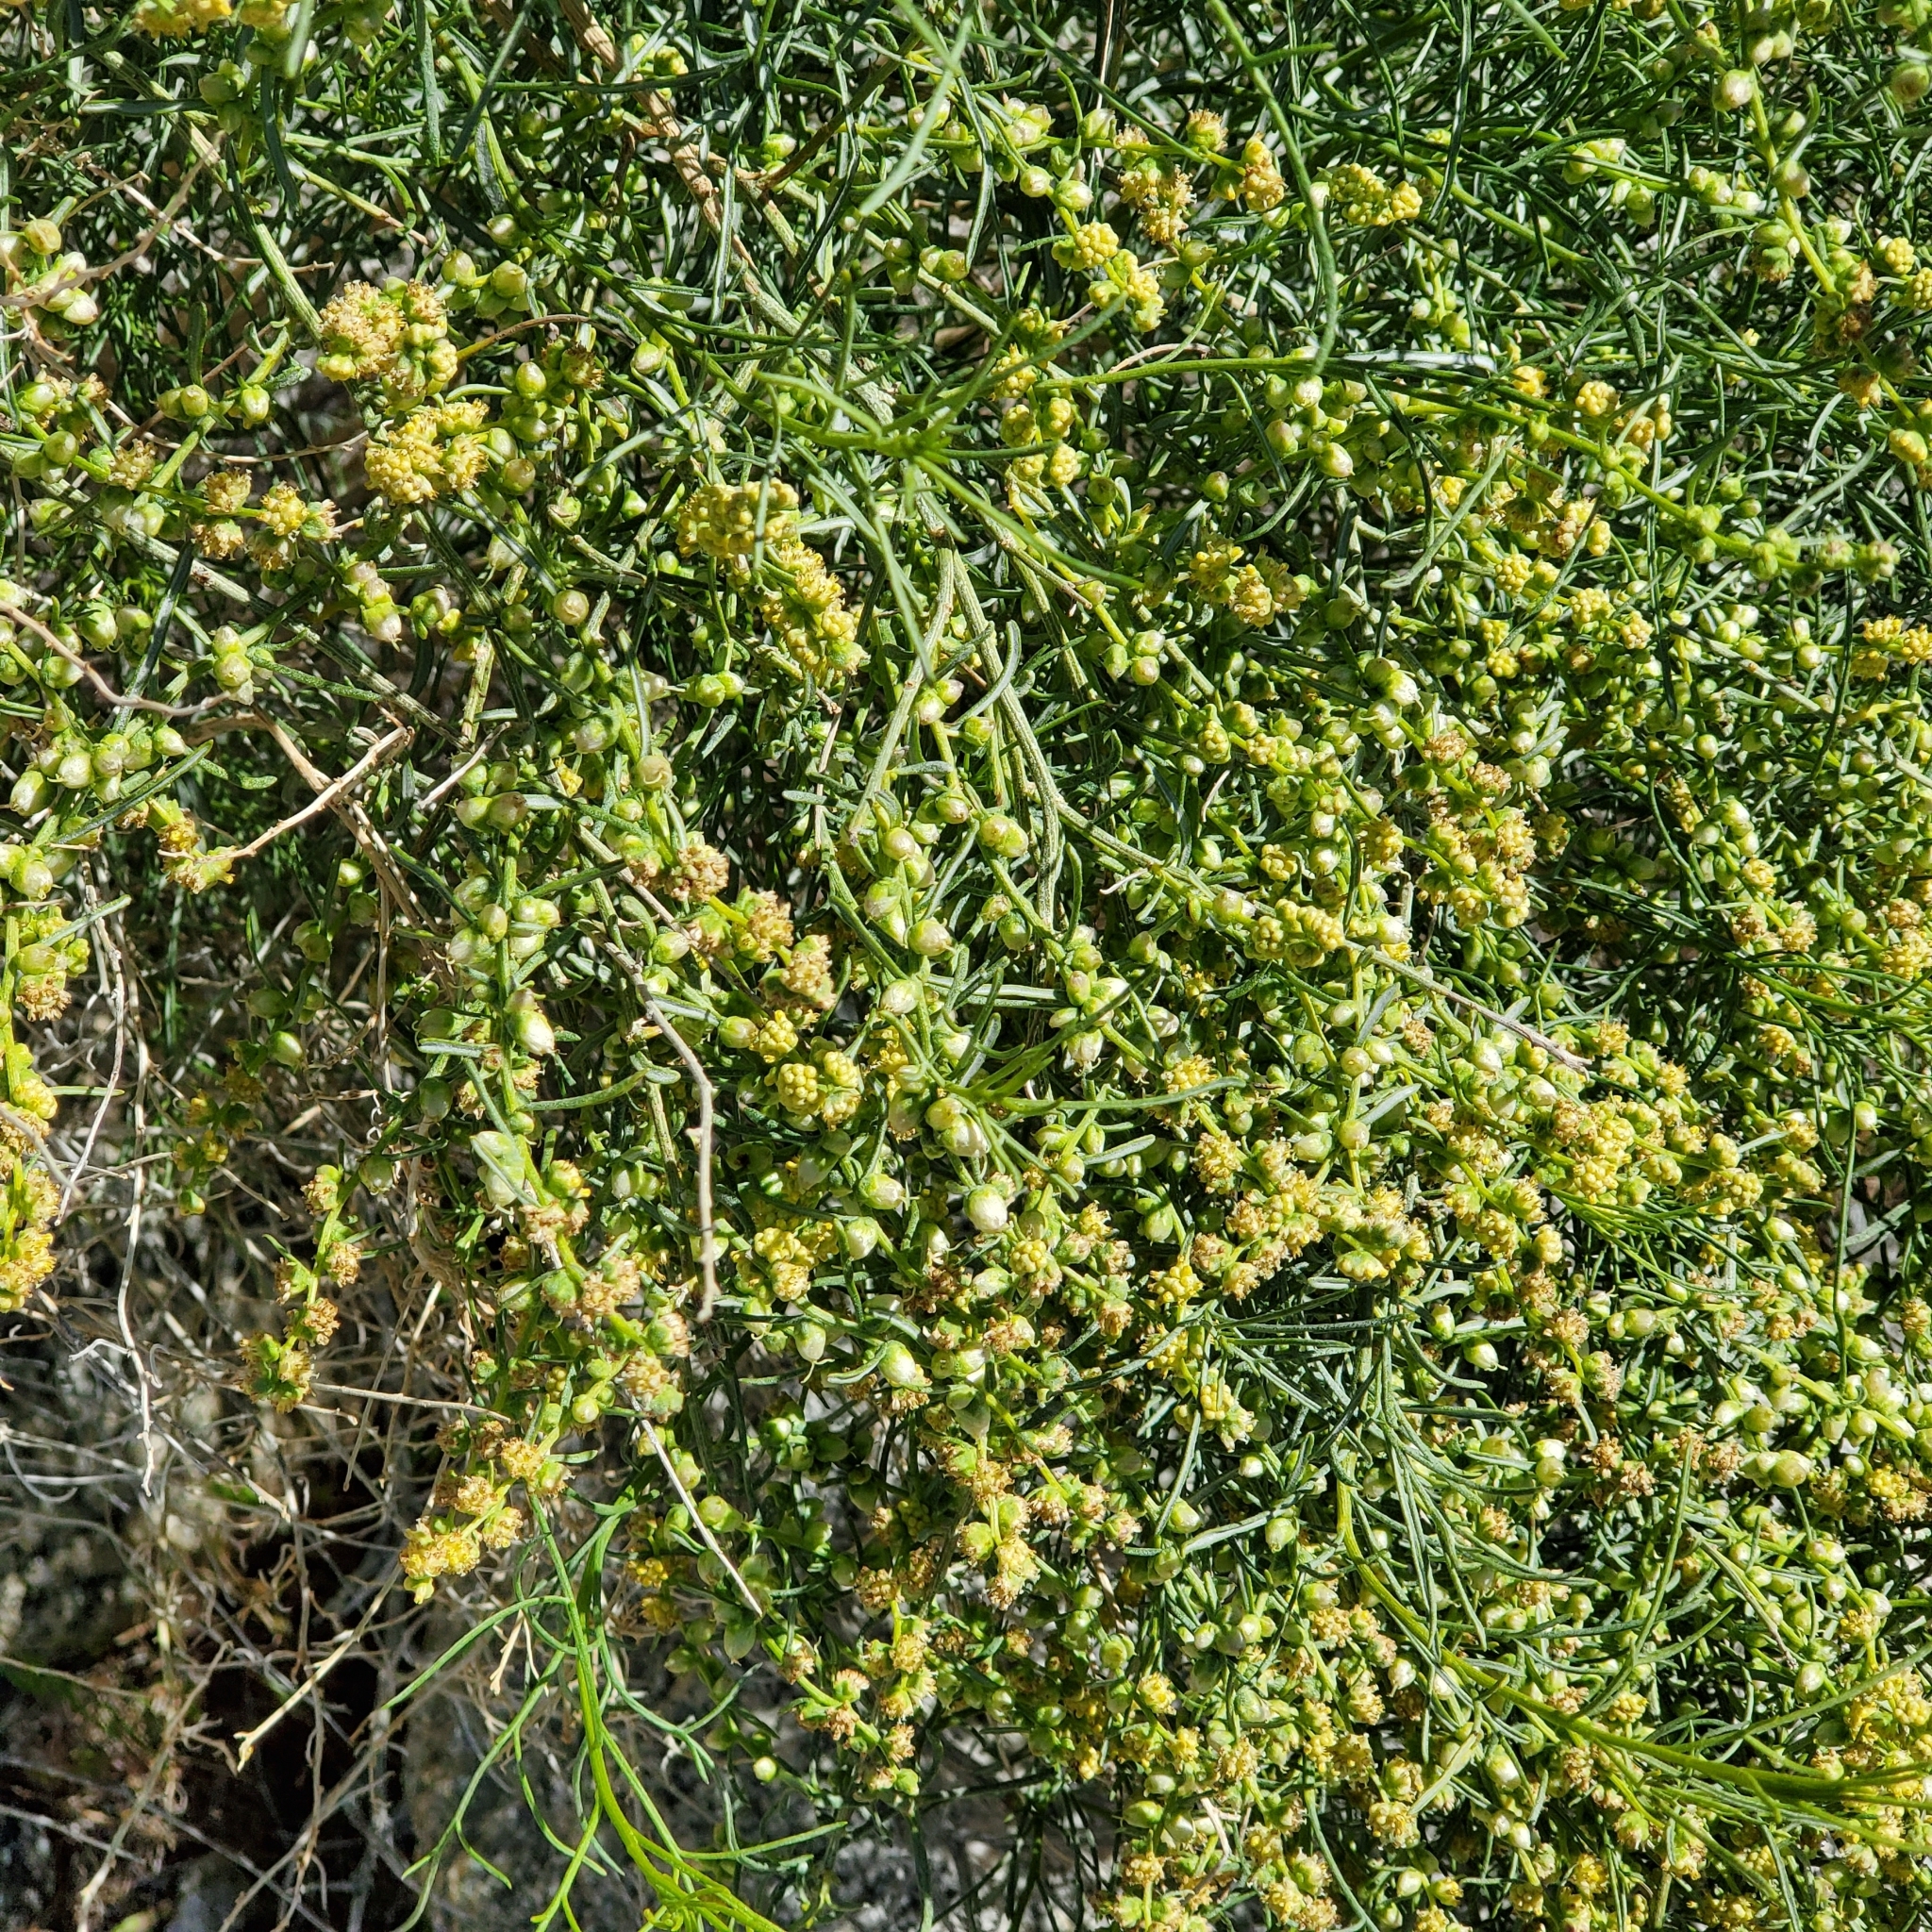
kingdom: Plantae
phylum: Tracheophyta
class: Magnoliopsida
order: Asterales
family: Asteraceae
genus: Ambrosia
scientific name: Ambrosia salsola
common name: Burrobrush
